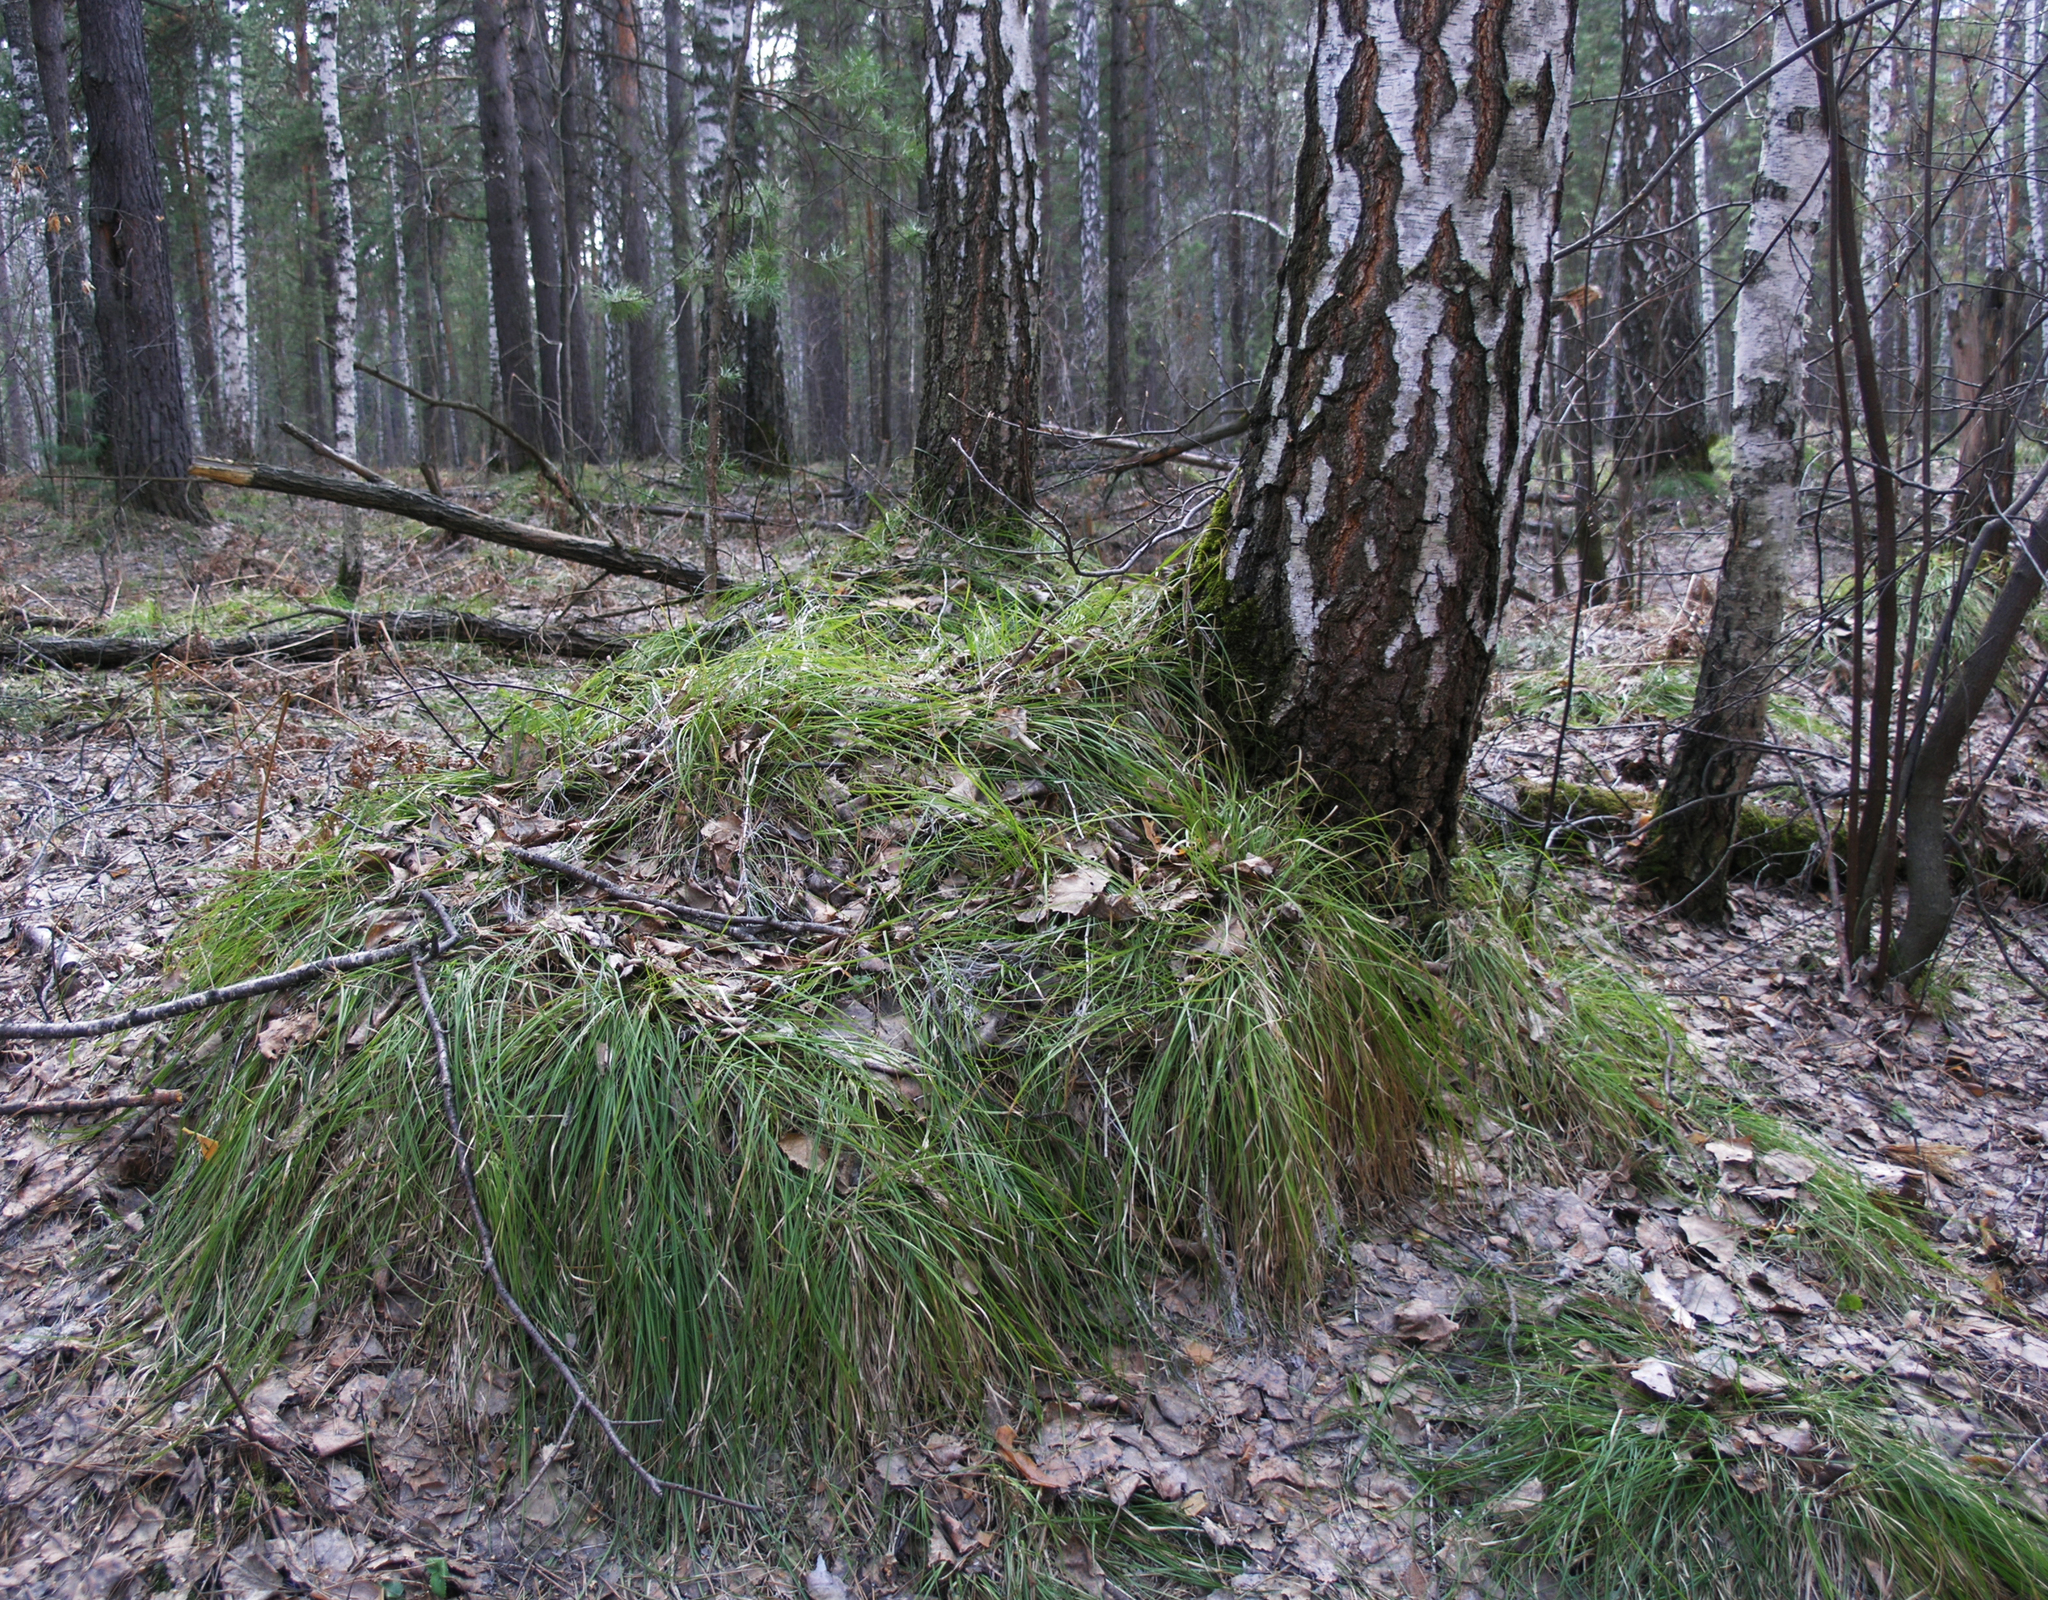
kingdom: Plantae
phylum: Tracheophyta
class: Liliopsida
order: Poales
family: Cyperaceae
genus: Carex
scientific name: Carex pediformis
